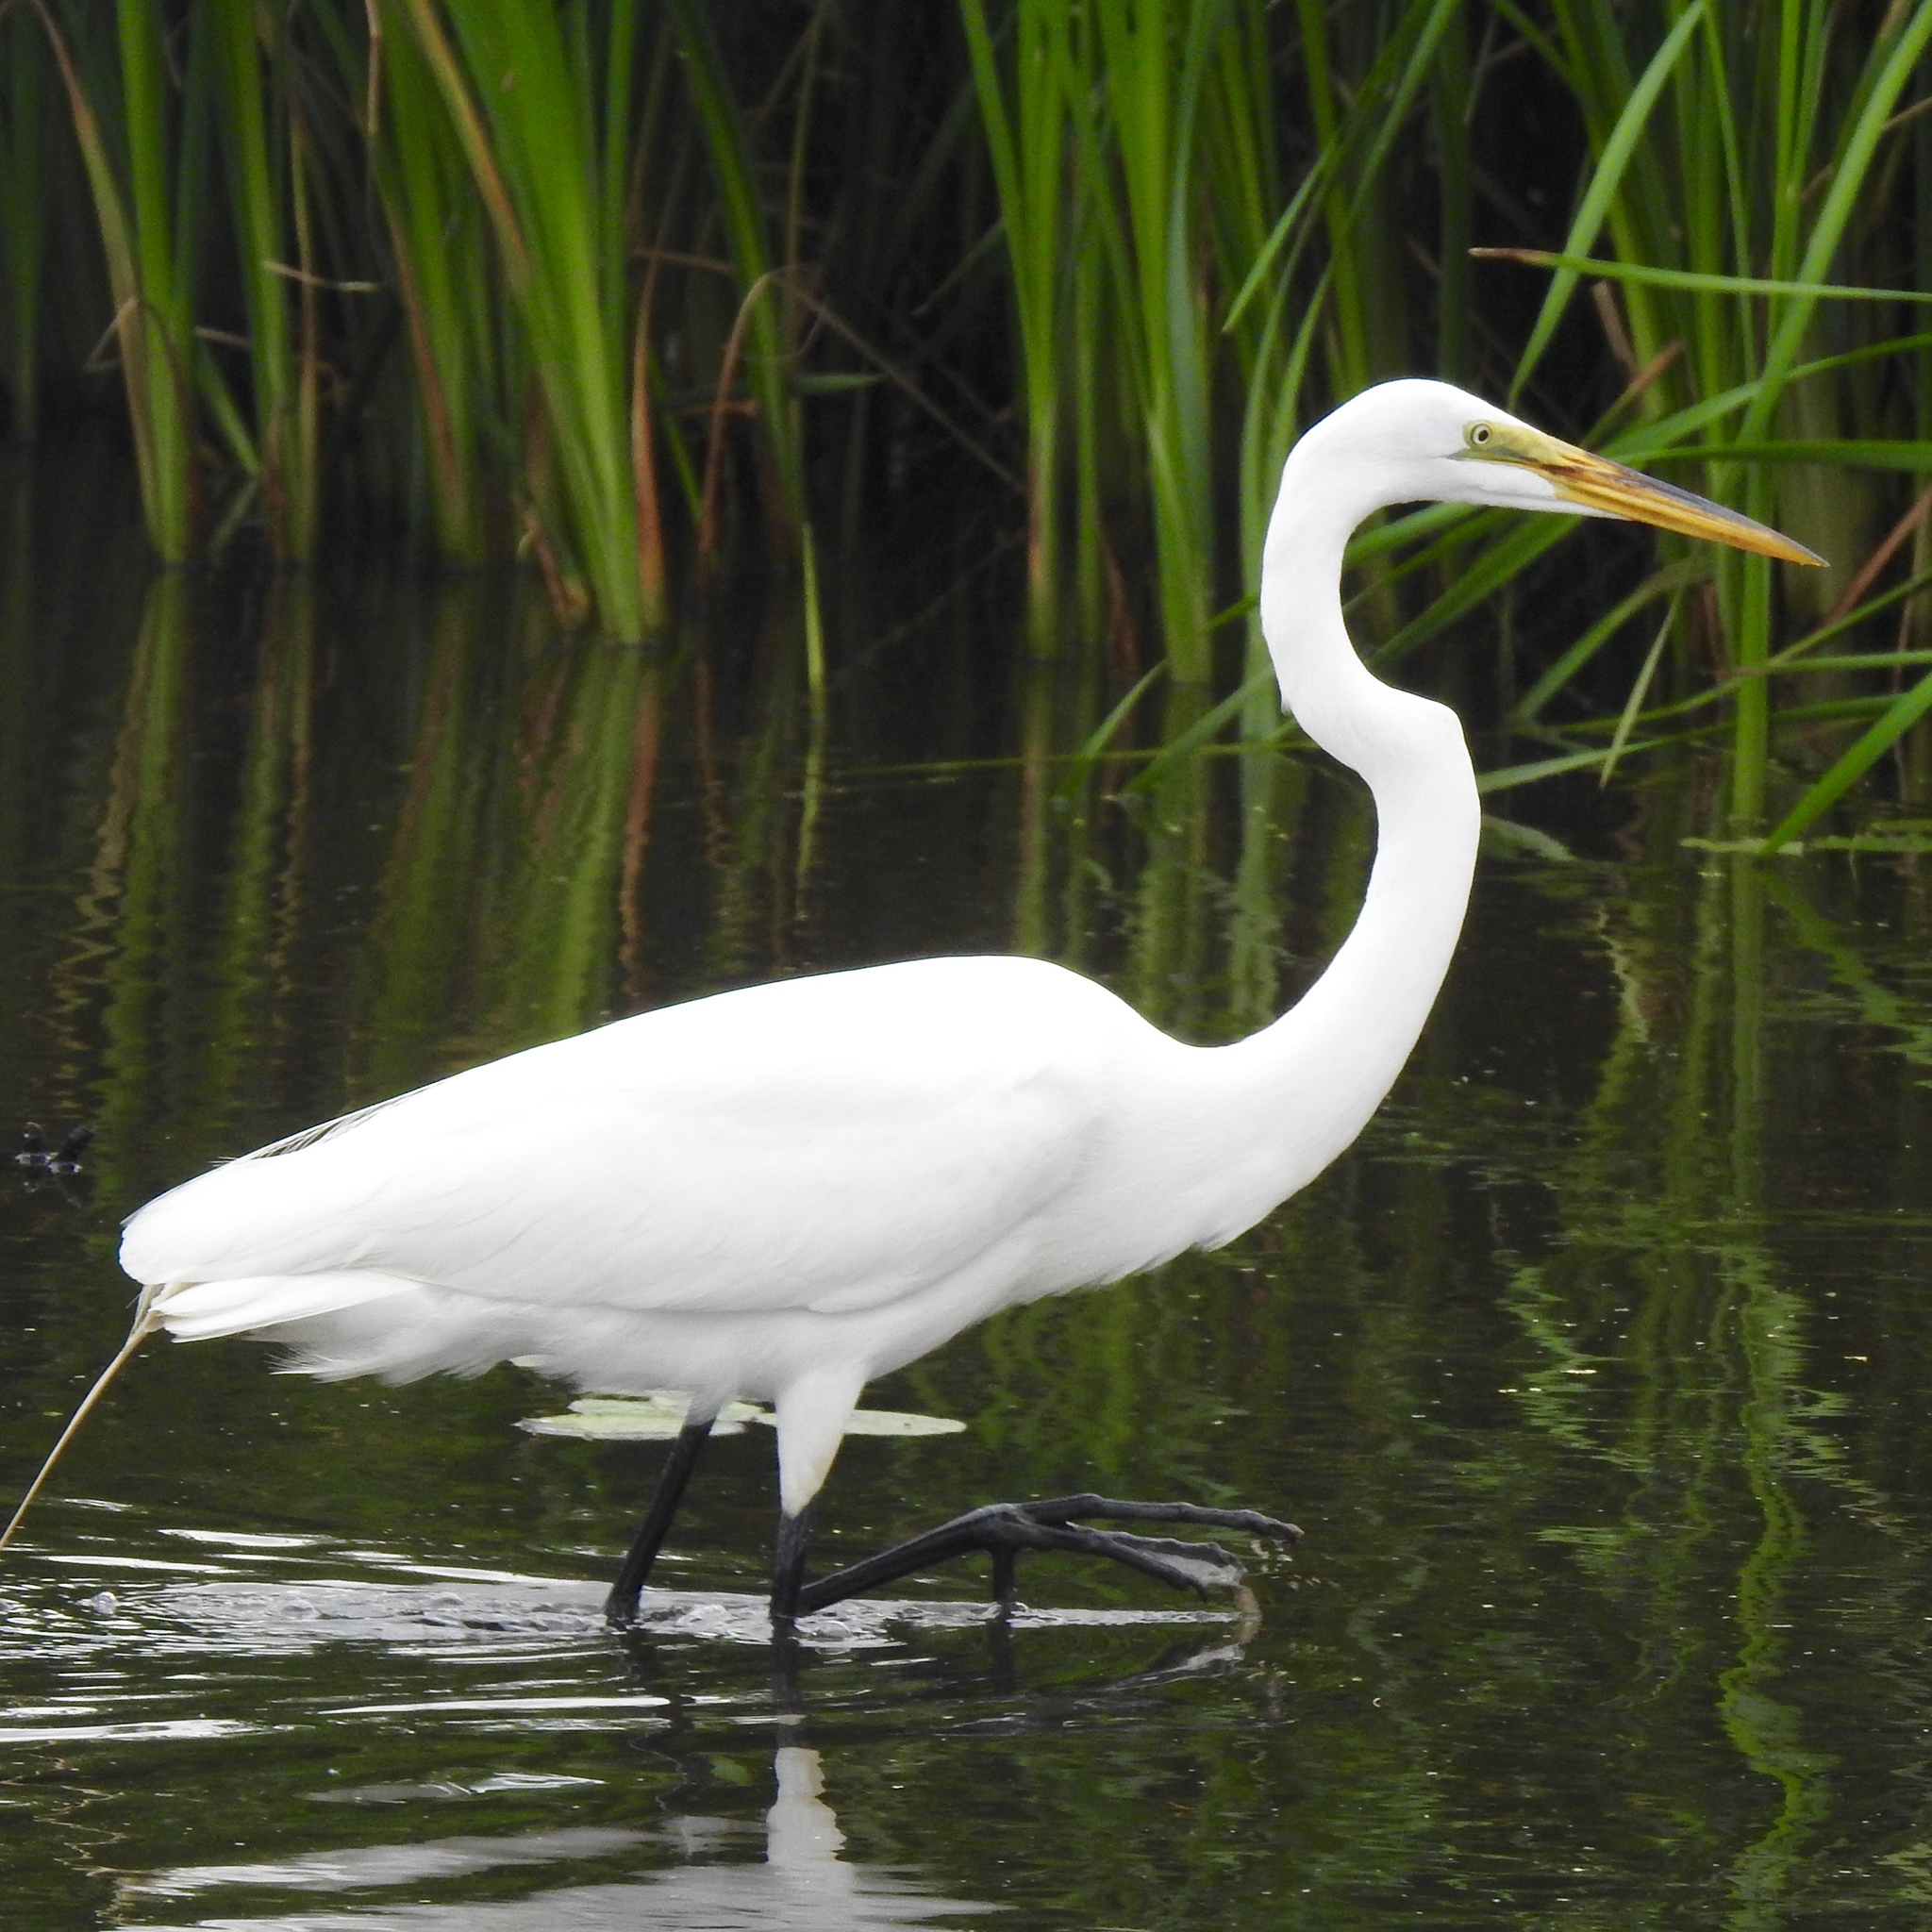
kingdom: Animalia
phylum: Chordata
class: Aves
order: Pelecaniformes
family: Ardeidae
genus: Ardea
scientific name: Ardea alba
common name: Great egret
